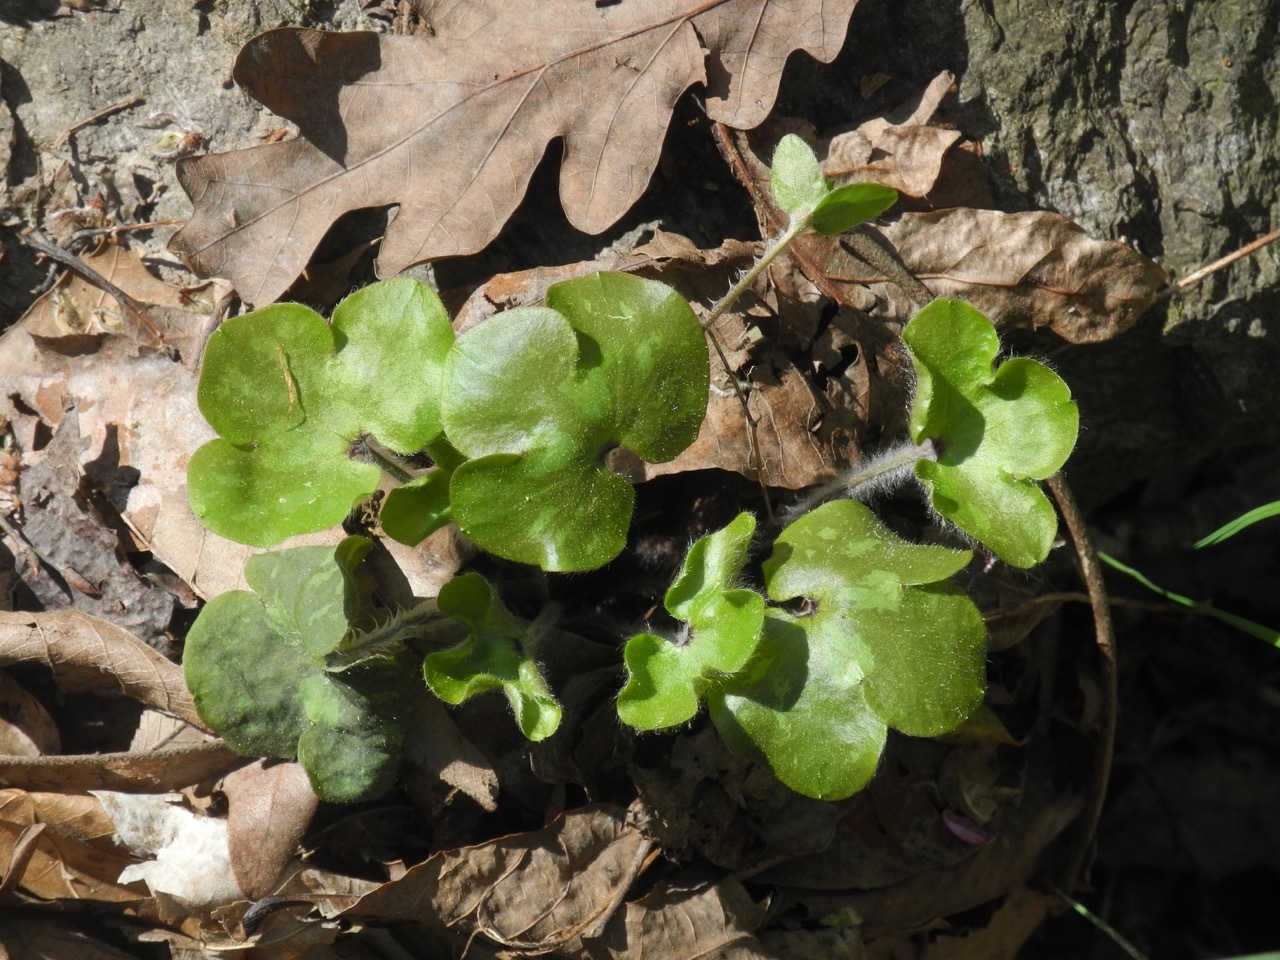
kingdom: Plantae
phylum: Tracheophyta
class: Magnoliopsida
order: Ranunculales
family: Ranunculaceae
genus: Hepatica
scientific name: Hepatica americana
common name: American hepatica
